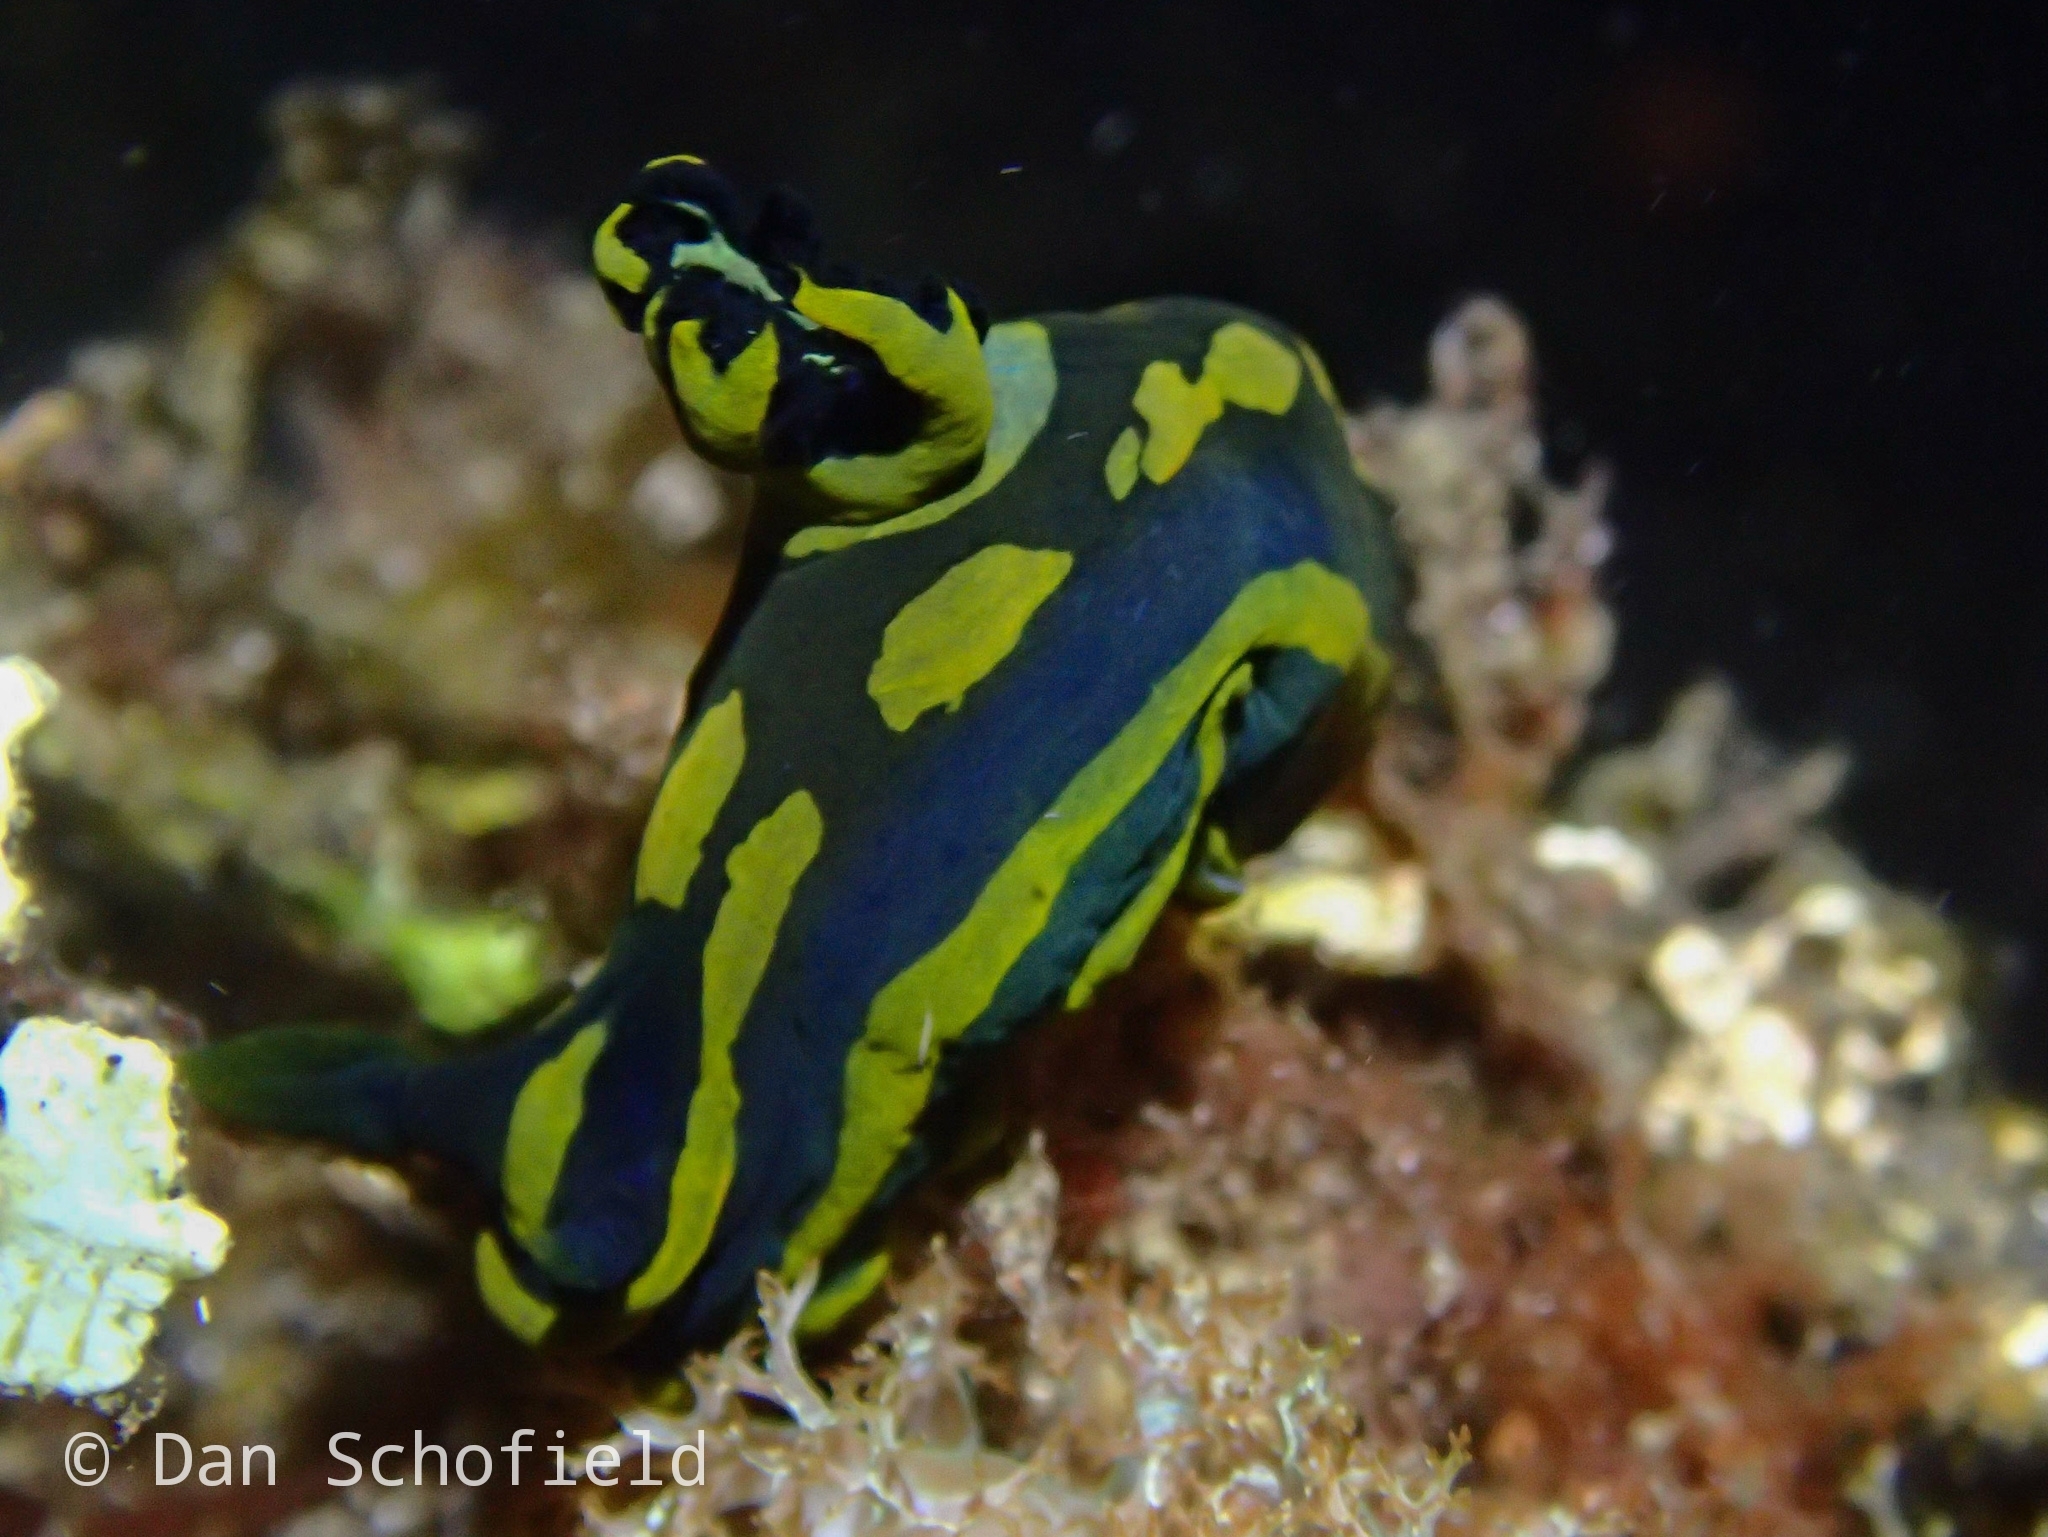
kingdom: Animalia
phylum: Mollusca
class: Gastropoda
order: Nudibranchia
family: Polyceridae
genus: Tambja
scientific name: Tambja gabrielae
